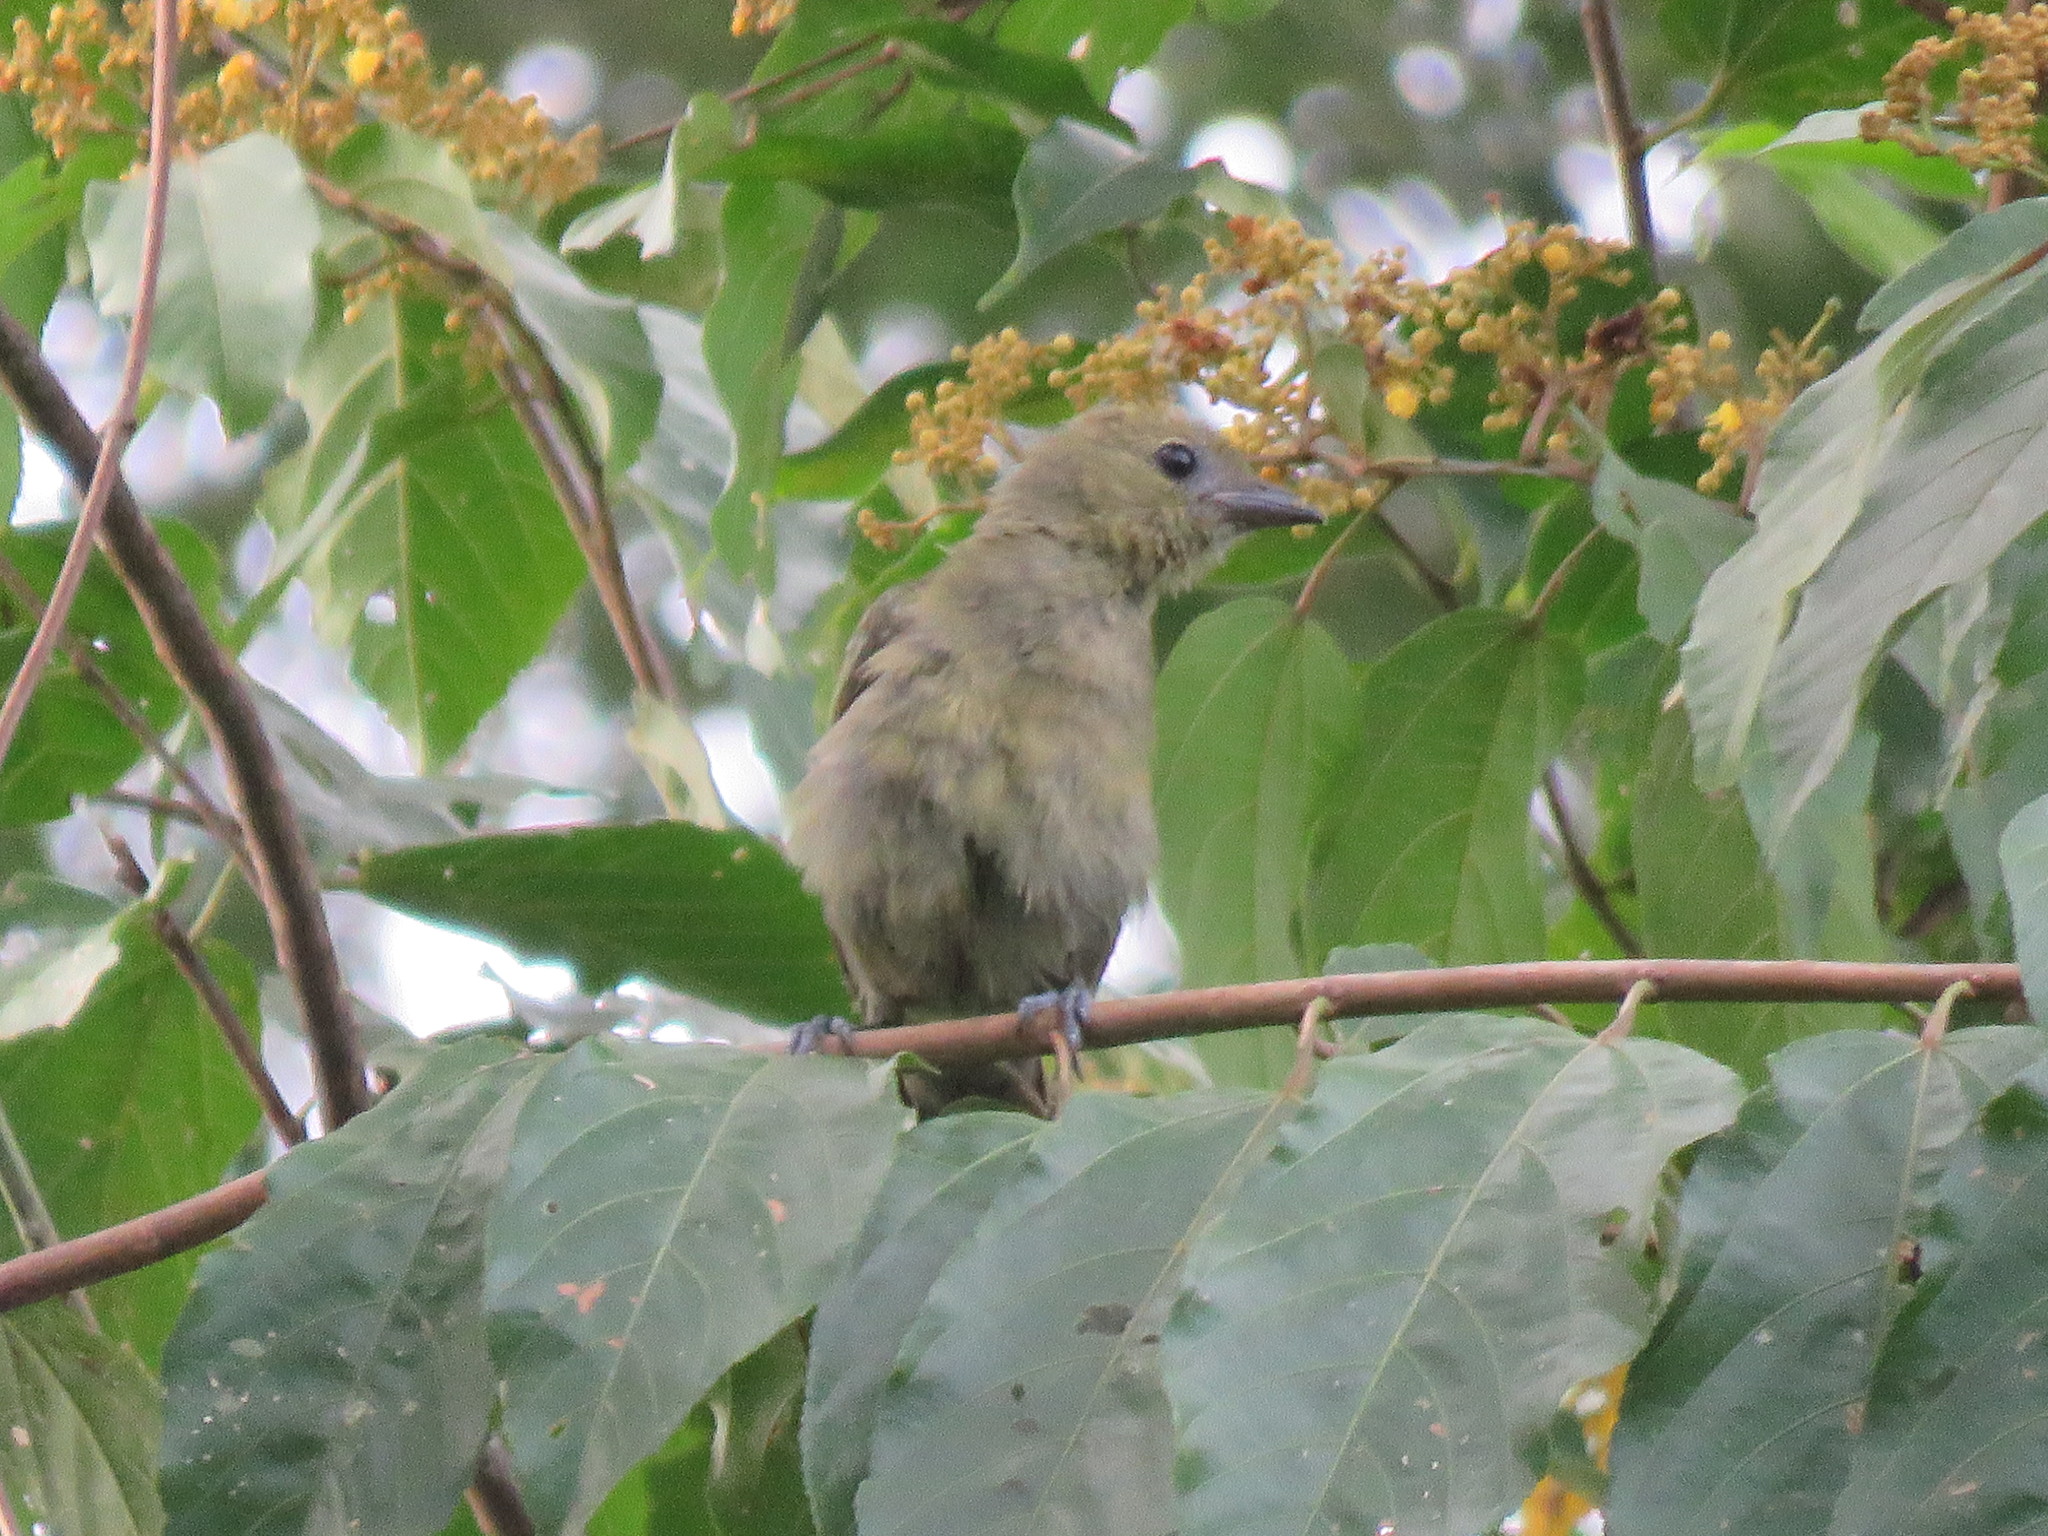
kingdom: Animalia
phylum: Chordata
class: Aves
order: Passeriformes
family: Thraupidae
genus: Thraupis
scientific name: Thraupis palmarum
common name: Palm tanager
